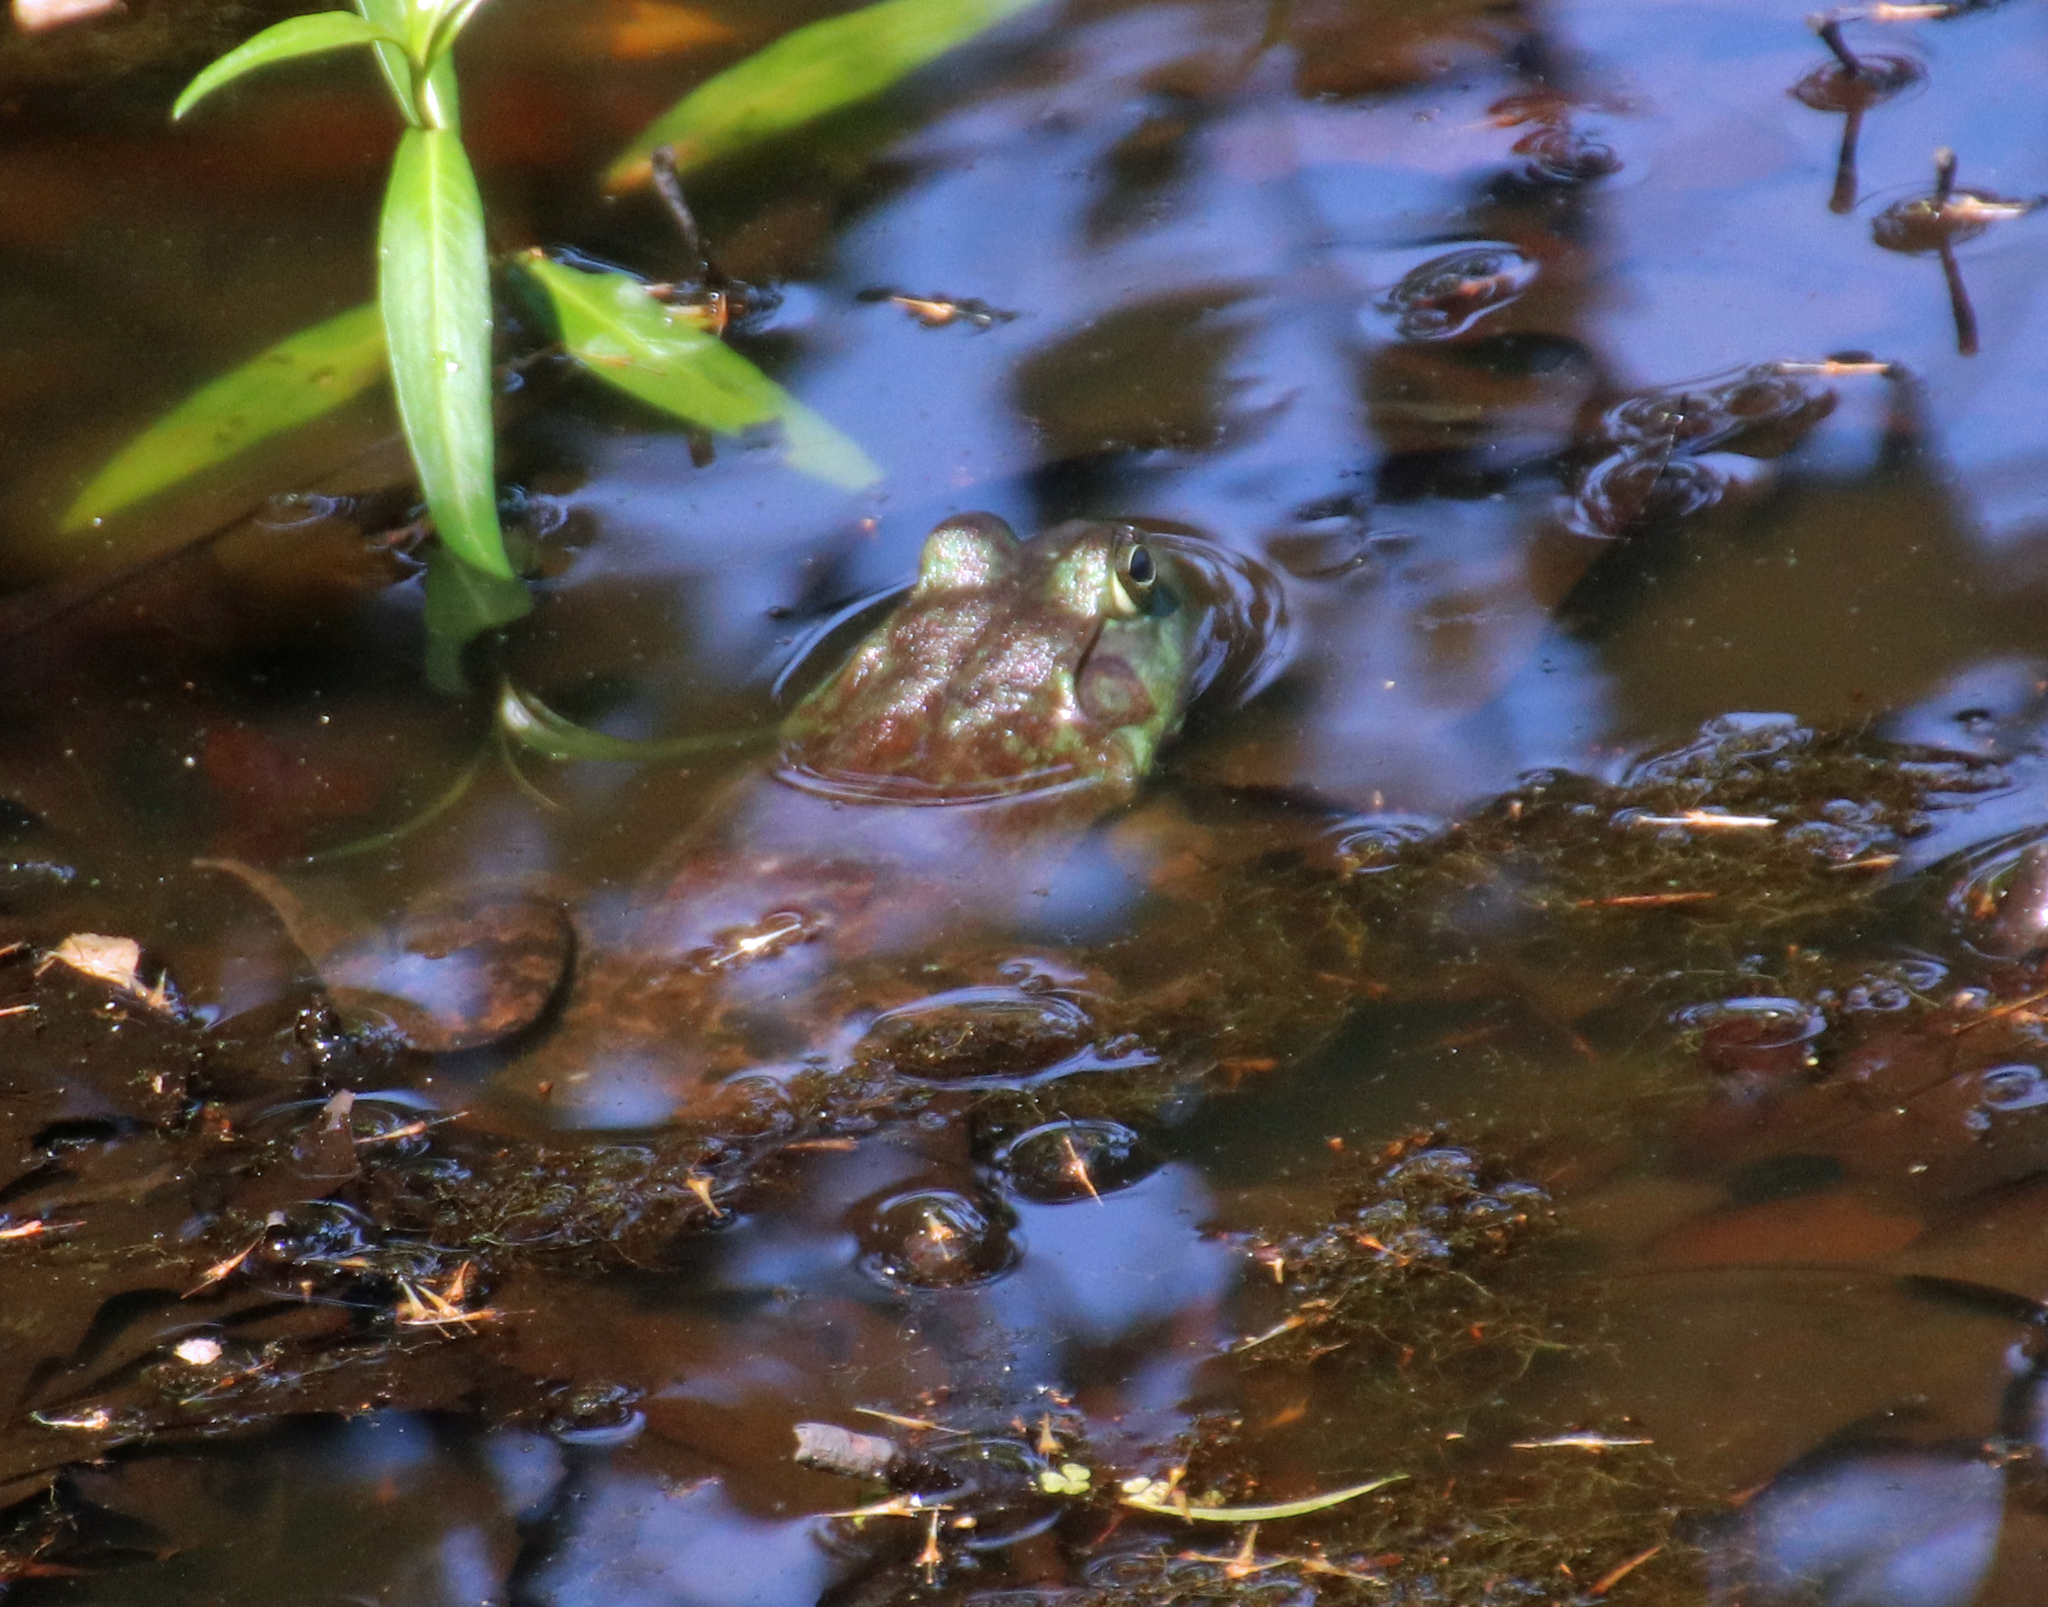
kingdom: Animalia
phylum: Chordata
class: Amphibia
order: Anura
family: Ranidae
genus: Lithobates
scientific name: Lithobates catesbeianus
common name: American bullfrog
